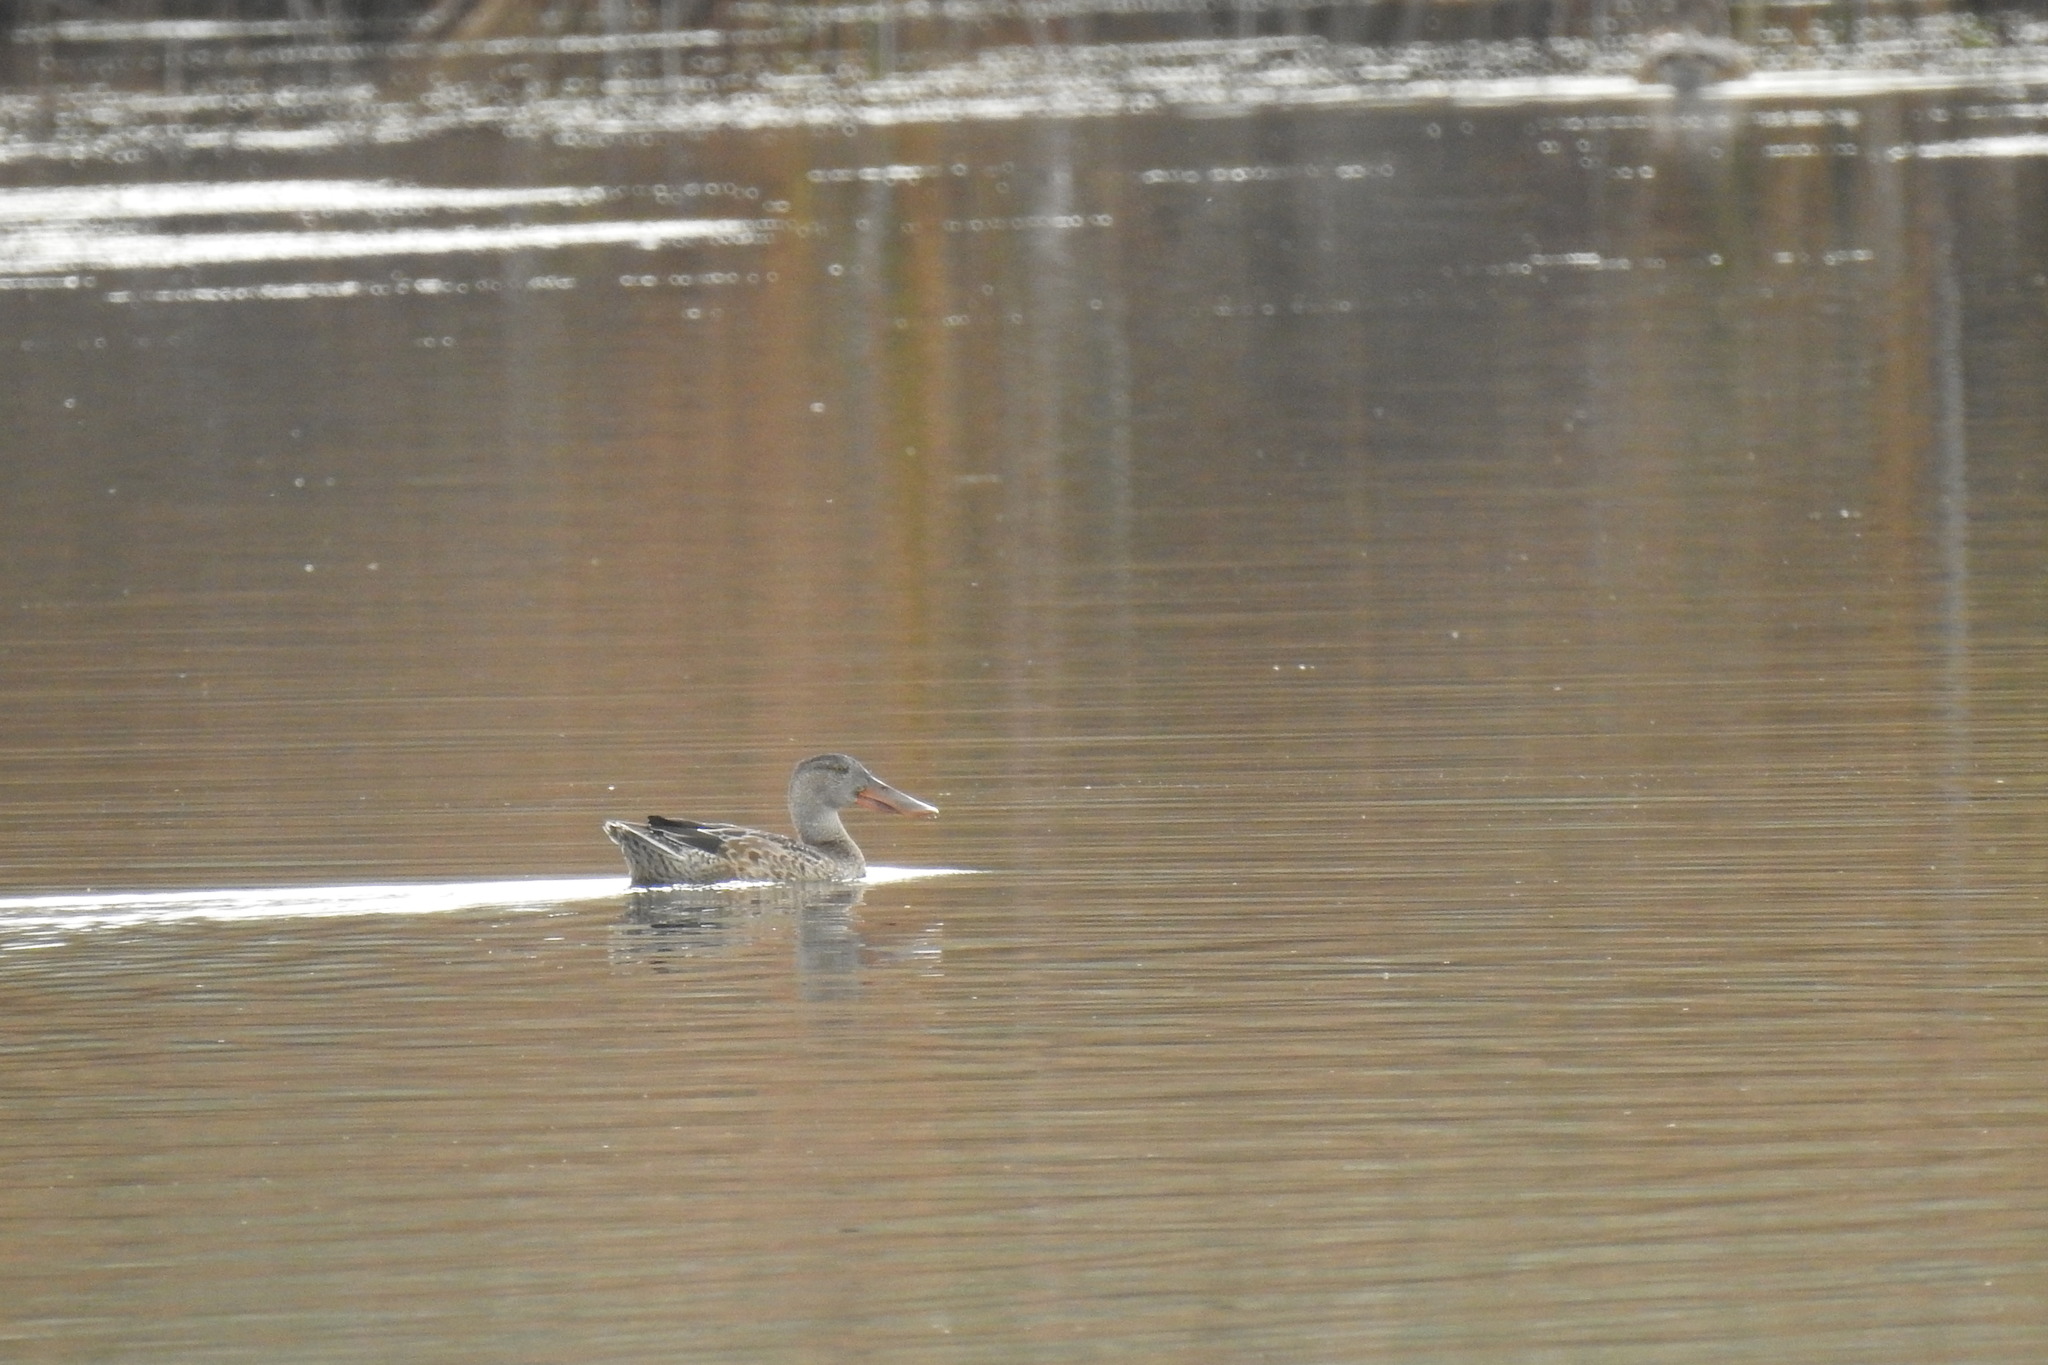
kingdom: Animalia
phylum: Chordata
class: Aves
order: Anseriformes
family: Anatidae
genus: Spatula
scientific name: Spatula clypeata
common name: Northern shoveler
